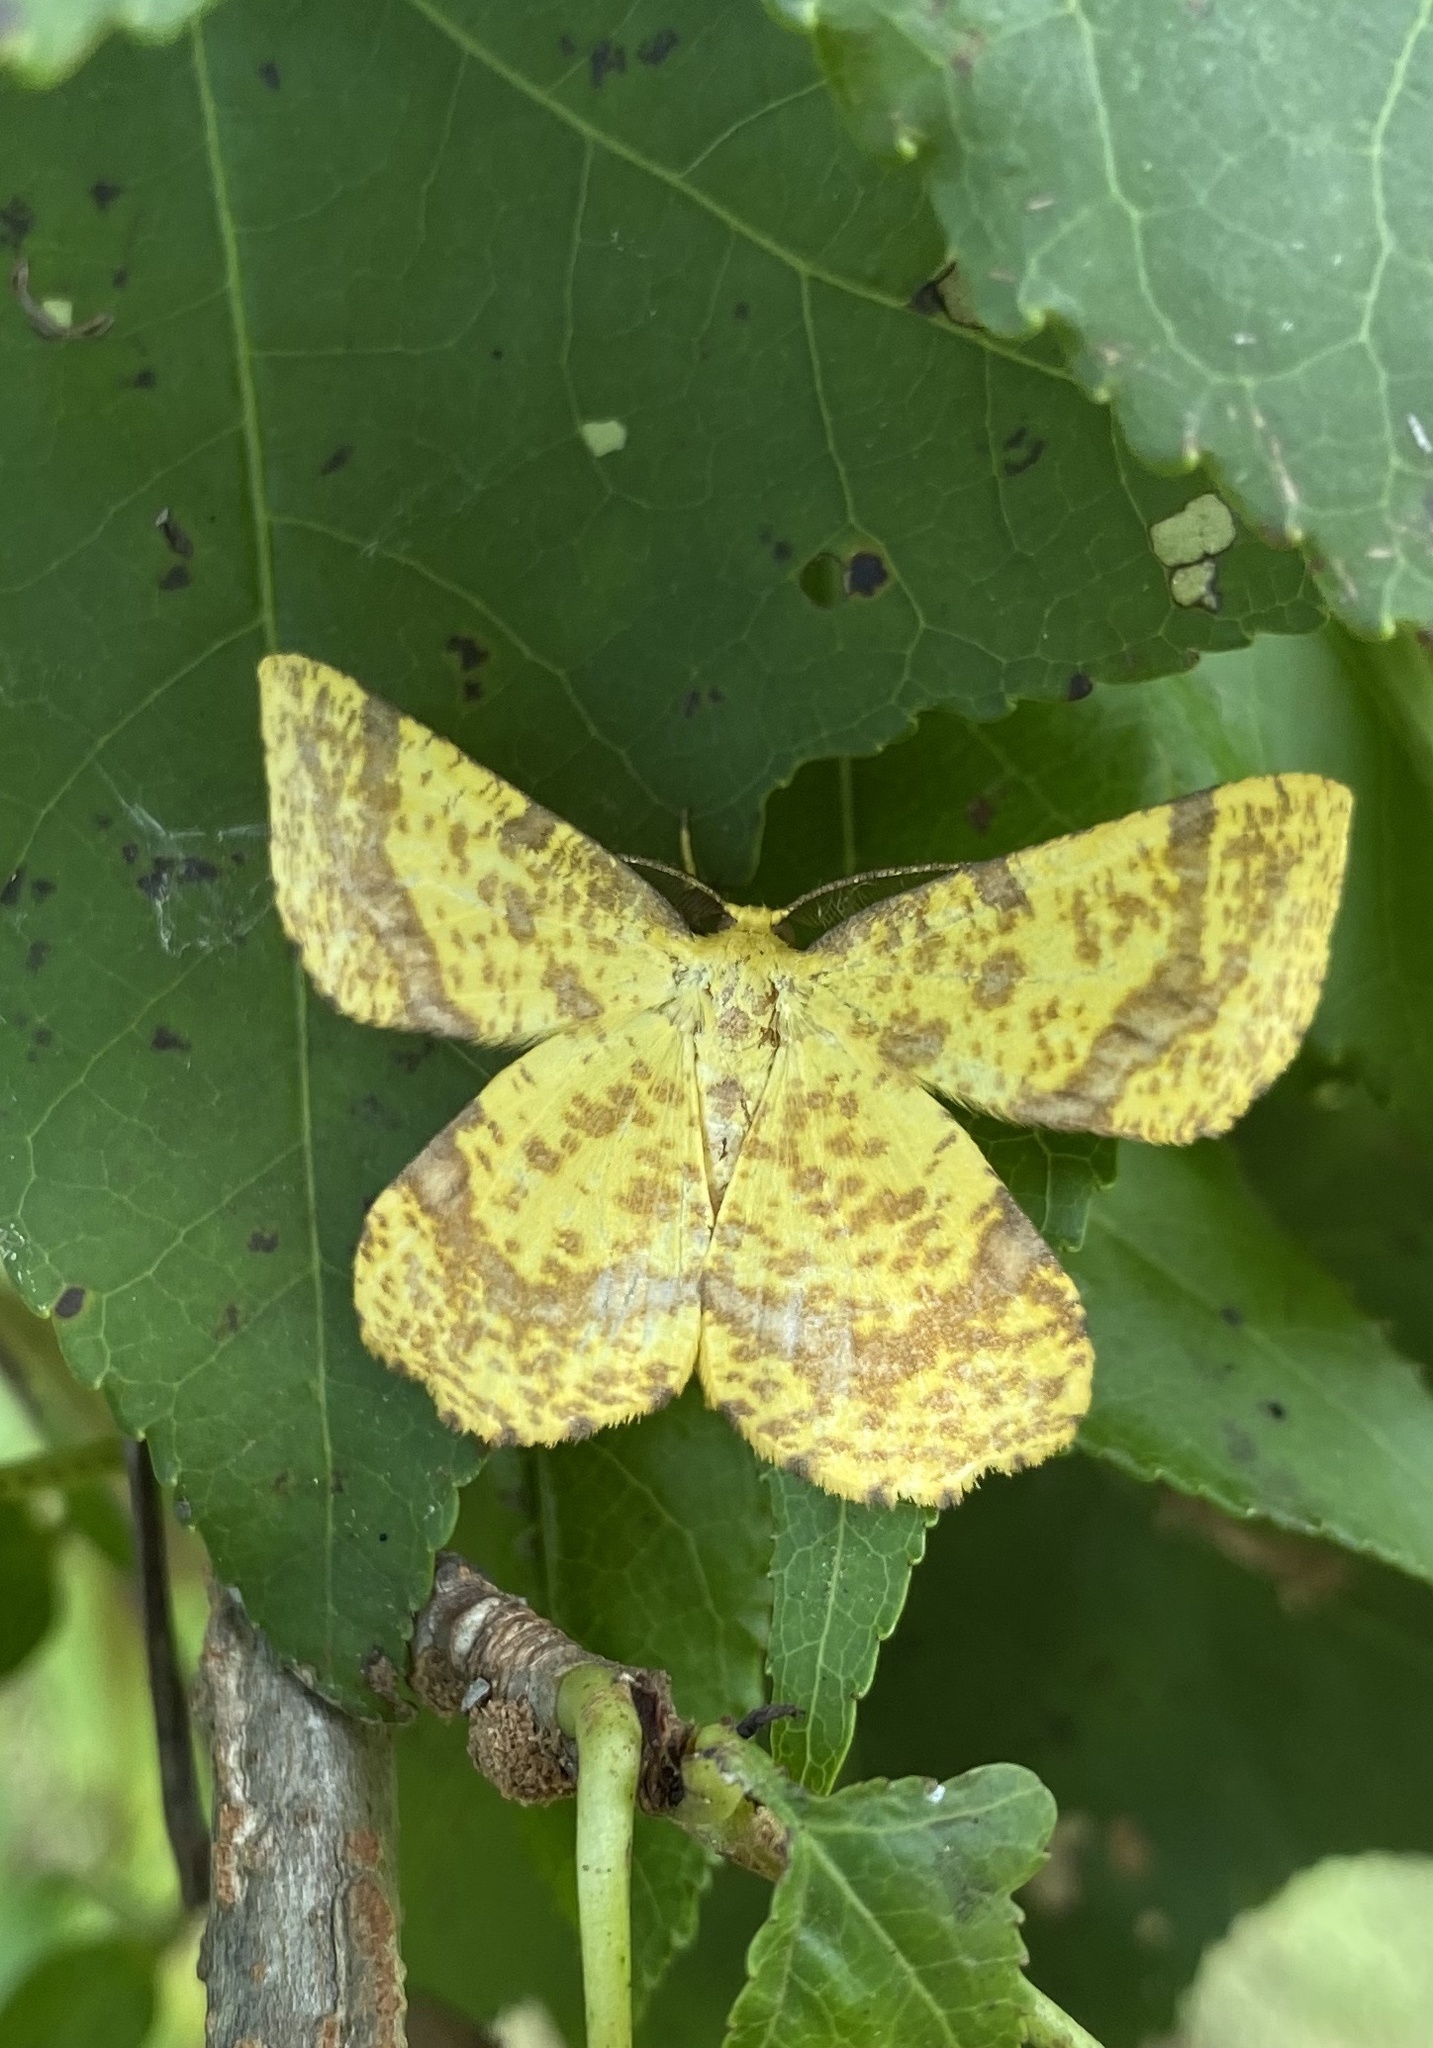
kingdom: Animalia
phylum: Arthropoda
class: Insecta
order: Lepidoptera
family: Geometridae
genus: Xanthotype
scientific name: Xanthotype
